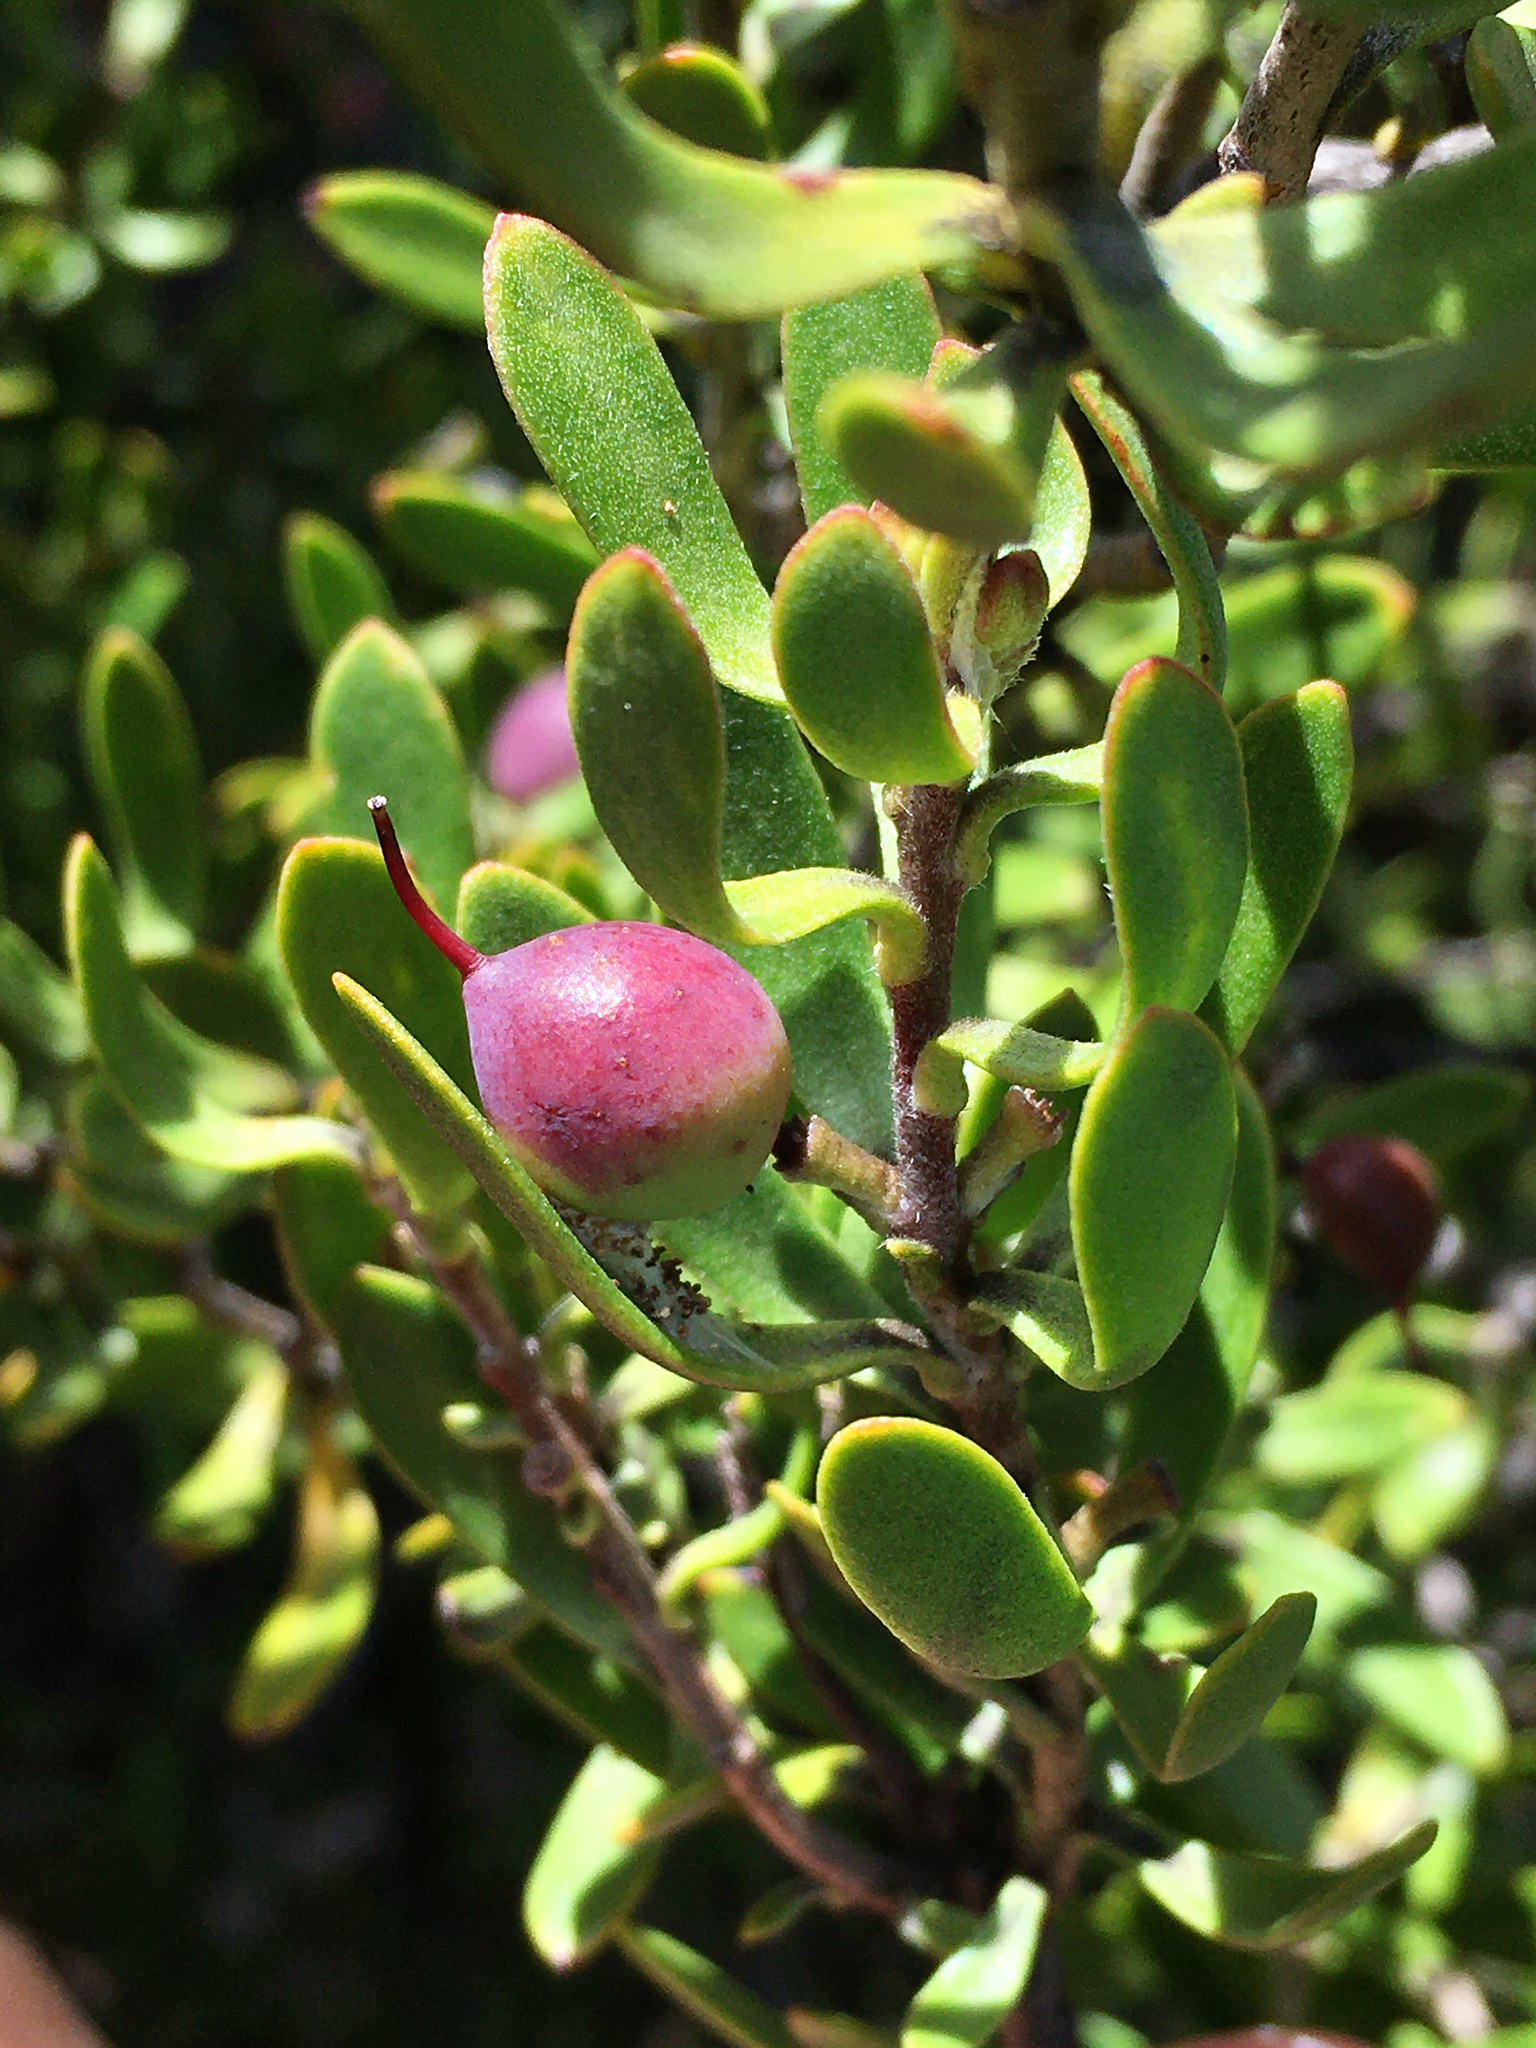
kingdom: Plantae
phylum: Tracheophyta
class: Magnoliopsida
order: Proteales
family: Proteaceae
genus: Persoonia
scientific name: Persoonia gunnii
